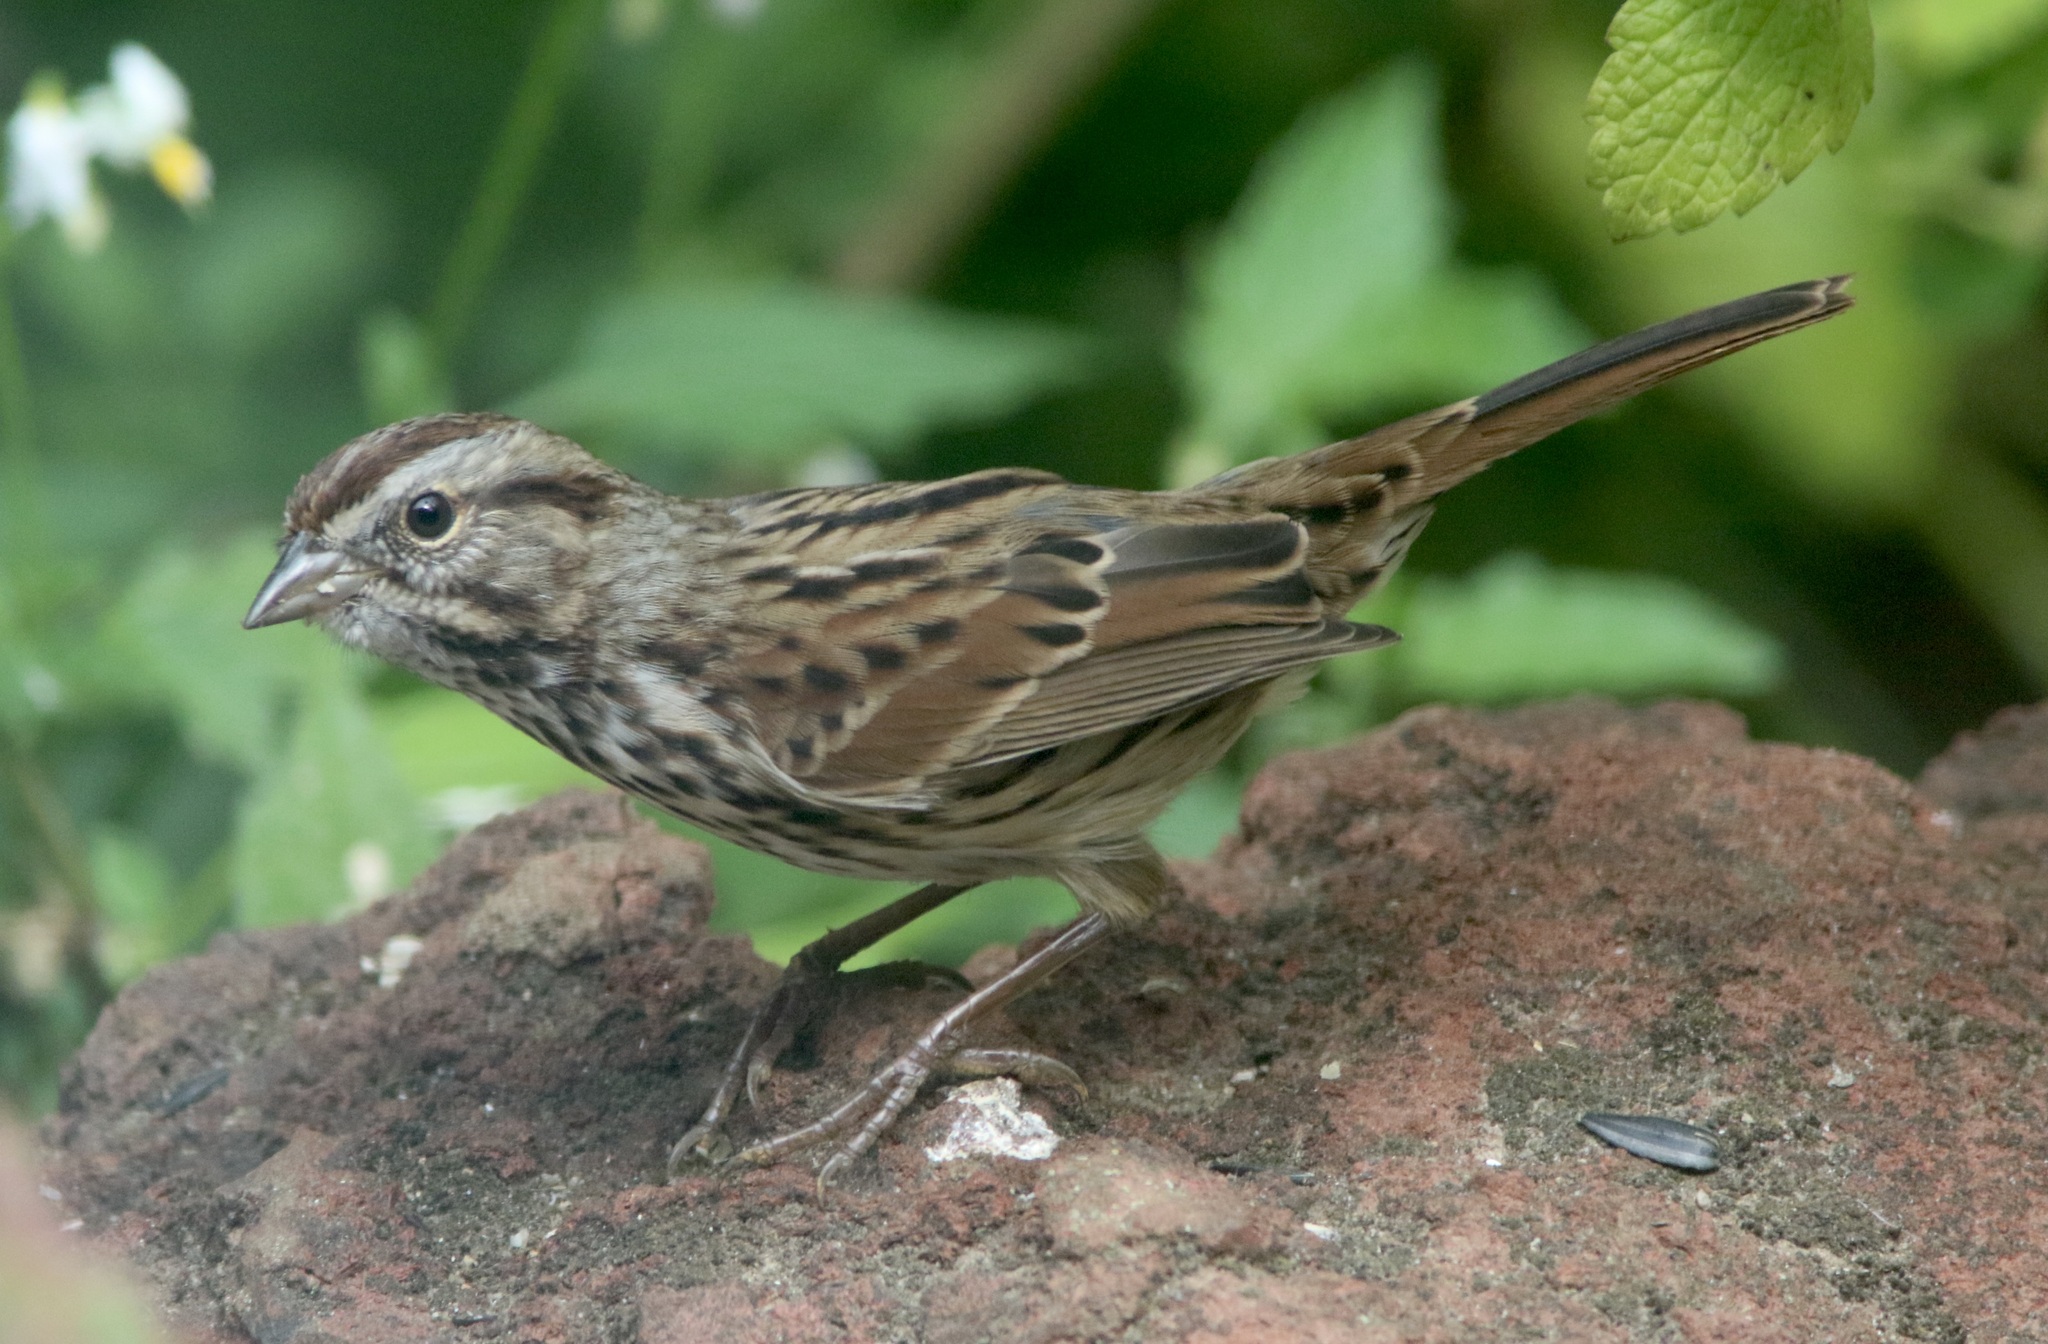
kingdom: Animalia
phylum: Chordata
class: Aves
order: Passeriformes
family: Passerellidae
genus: Melospiza
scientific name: Melospiza melodia
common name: Song sparrow
